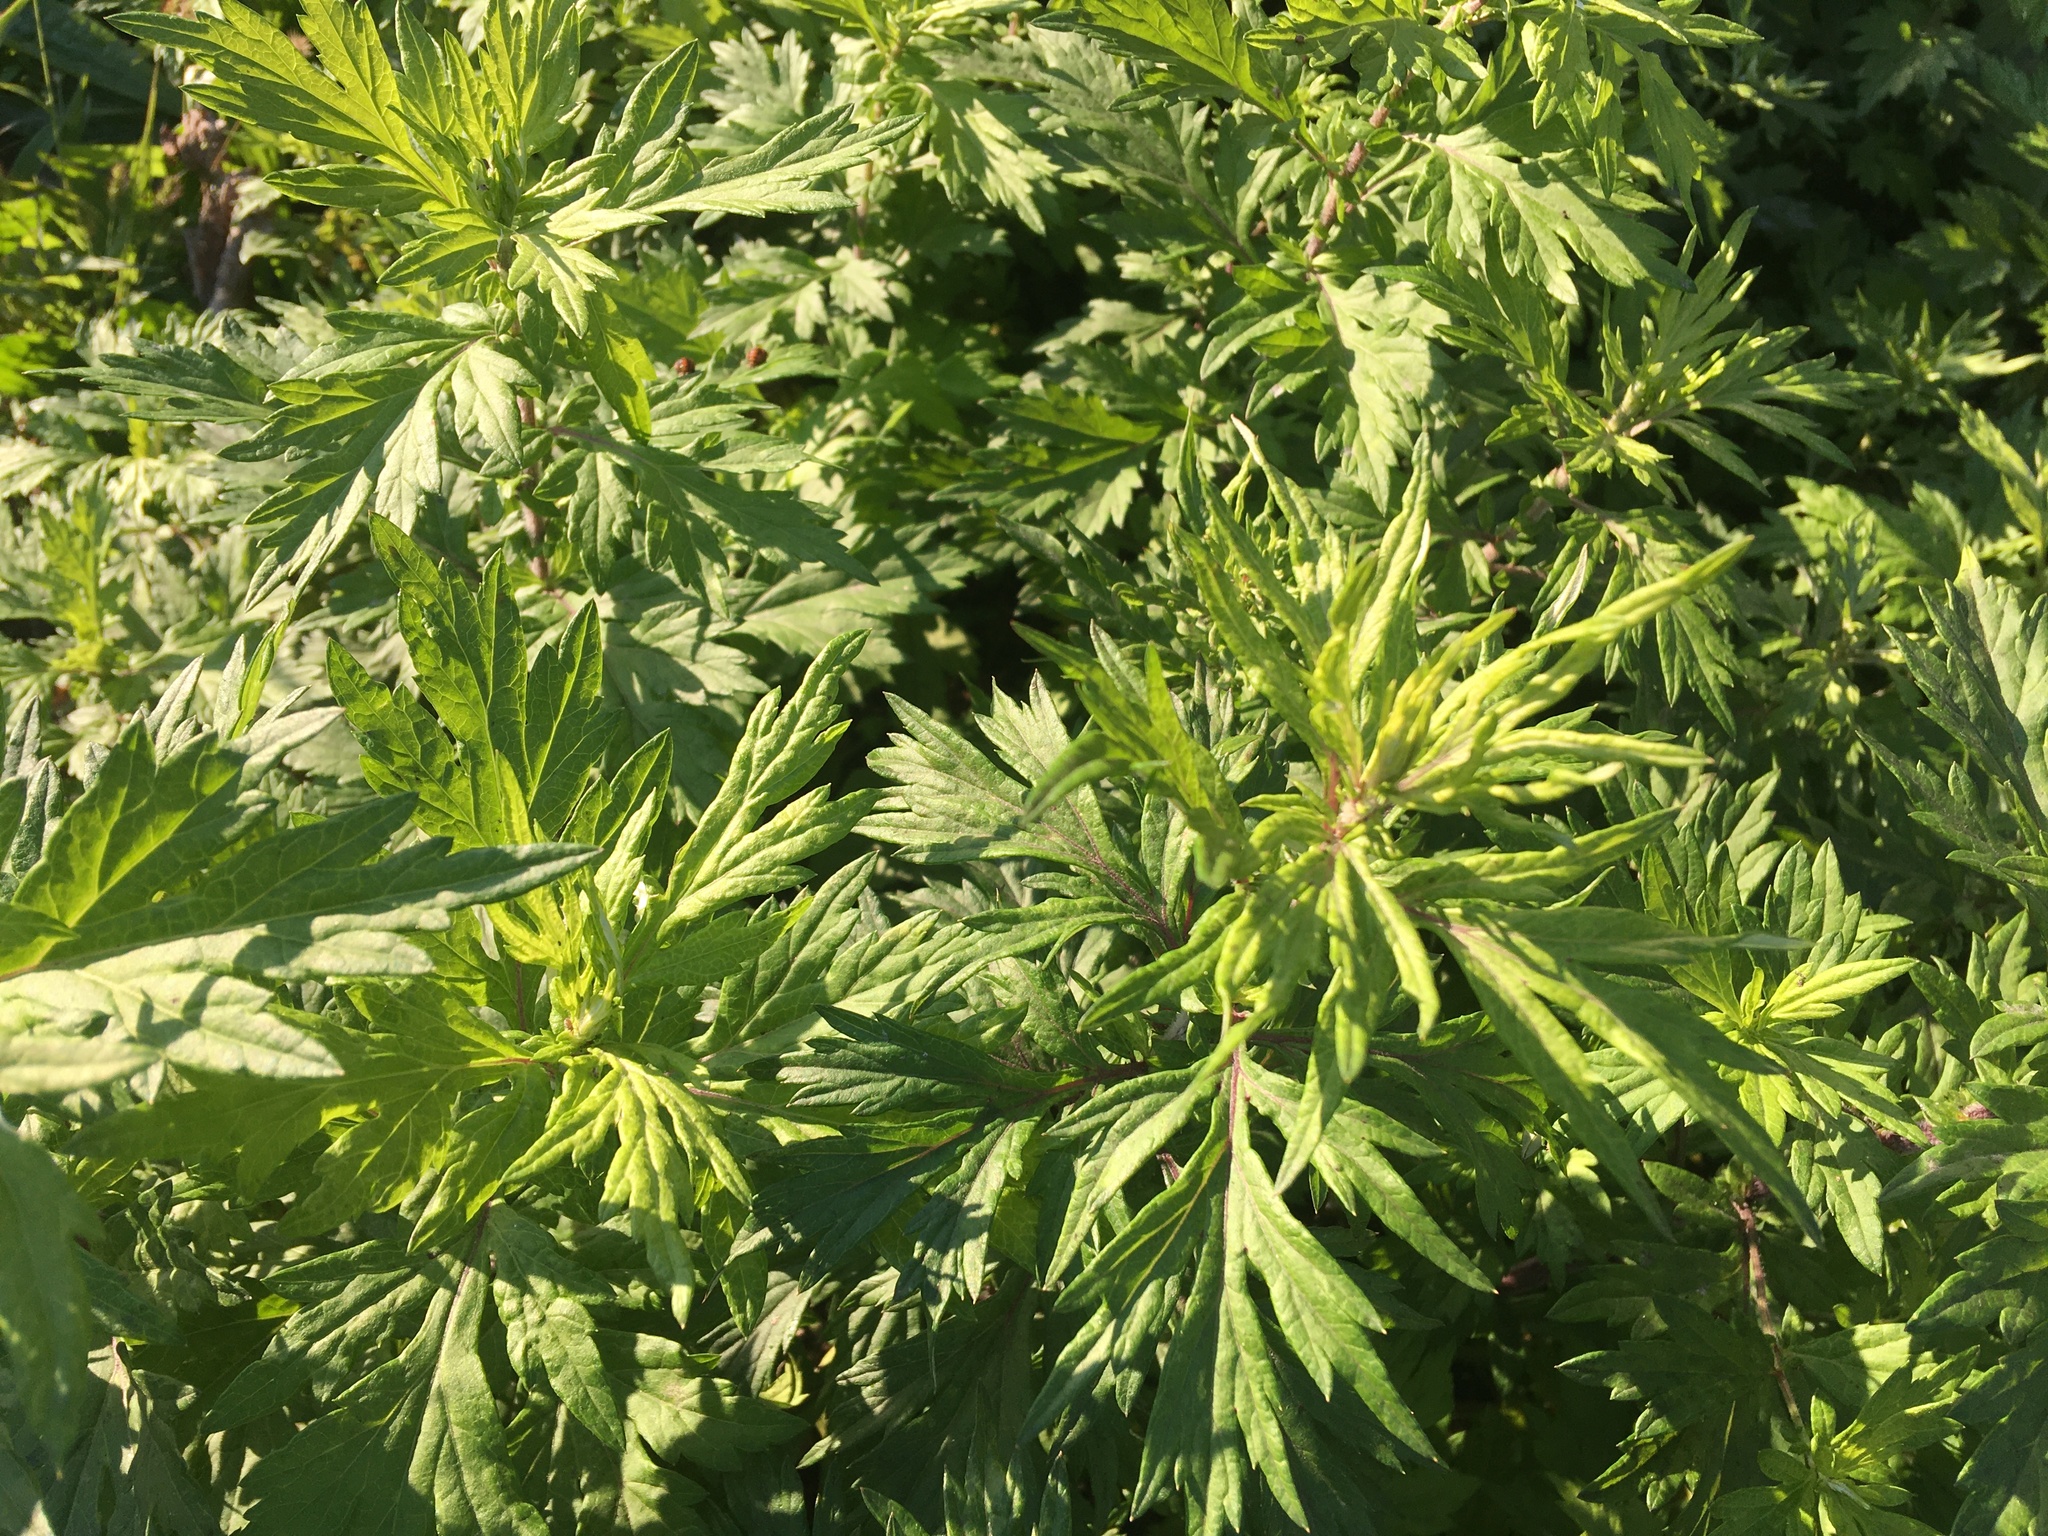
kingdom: Plantae
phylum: Tracheophyta
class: Magnoliopsida
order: Asterales
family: Asteraceae
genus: Artemisia
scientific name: Artemisia vulgaris
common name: Mugwort
